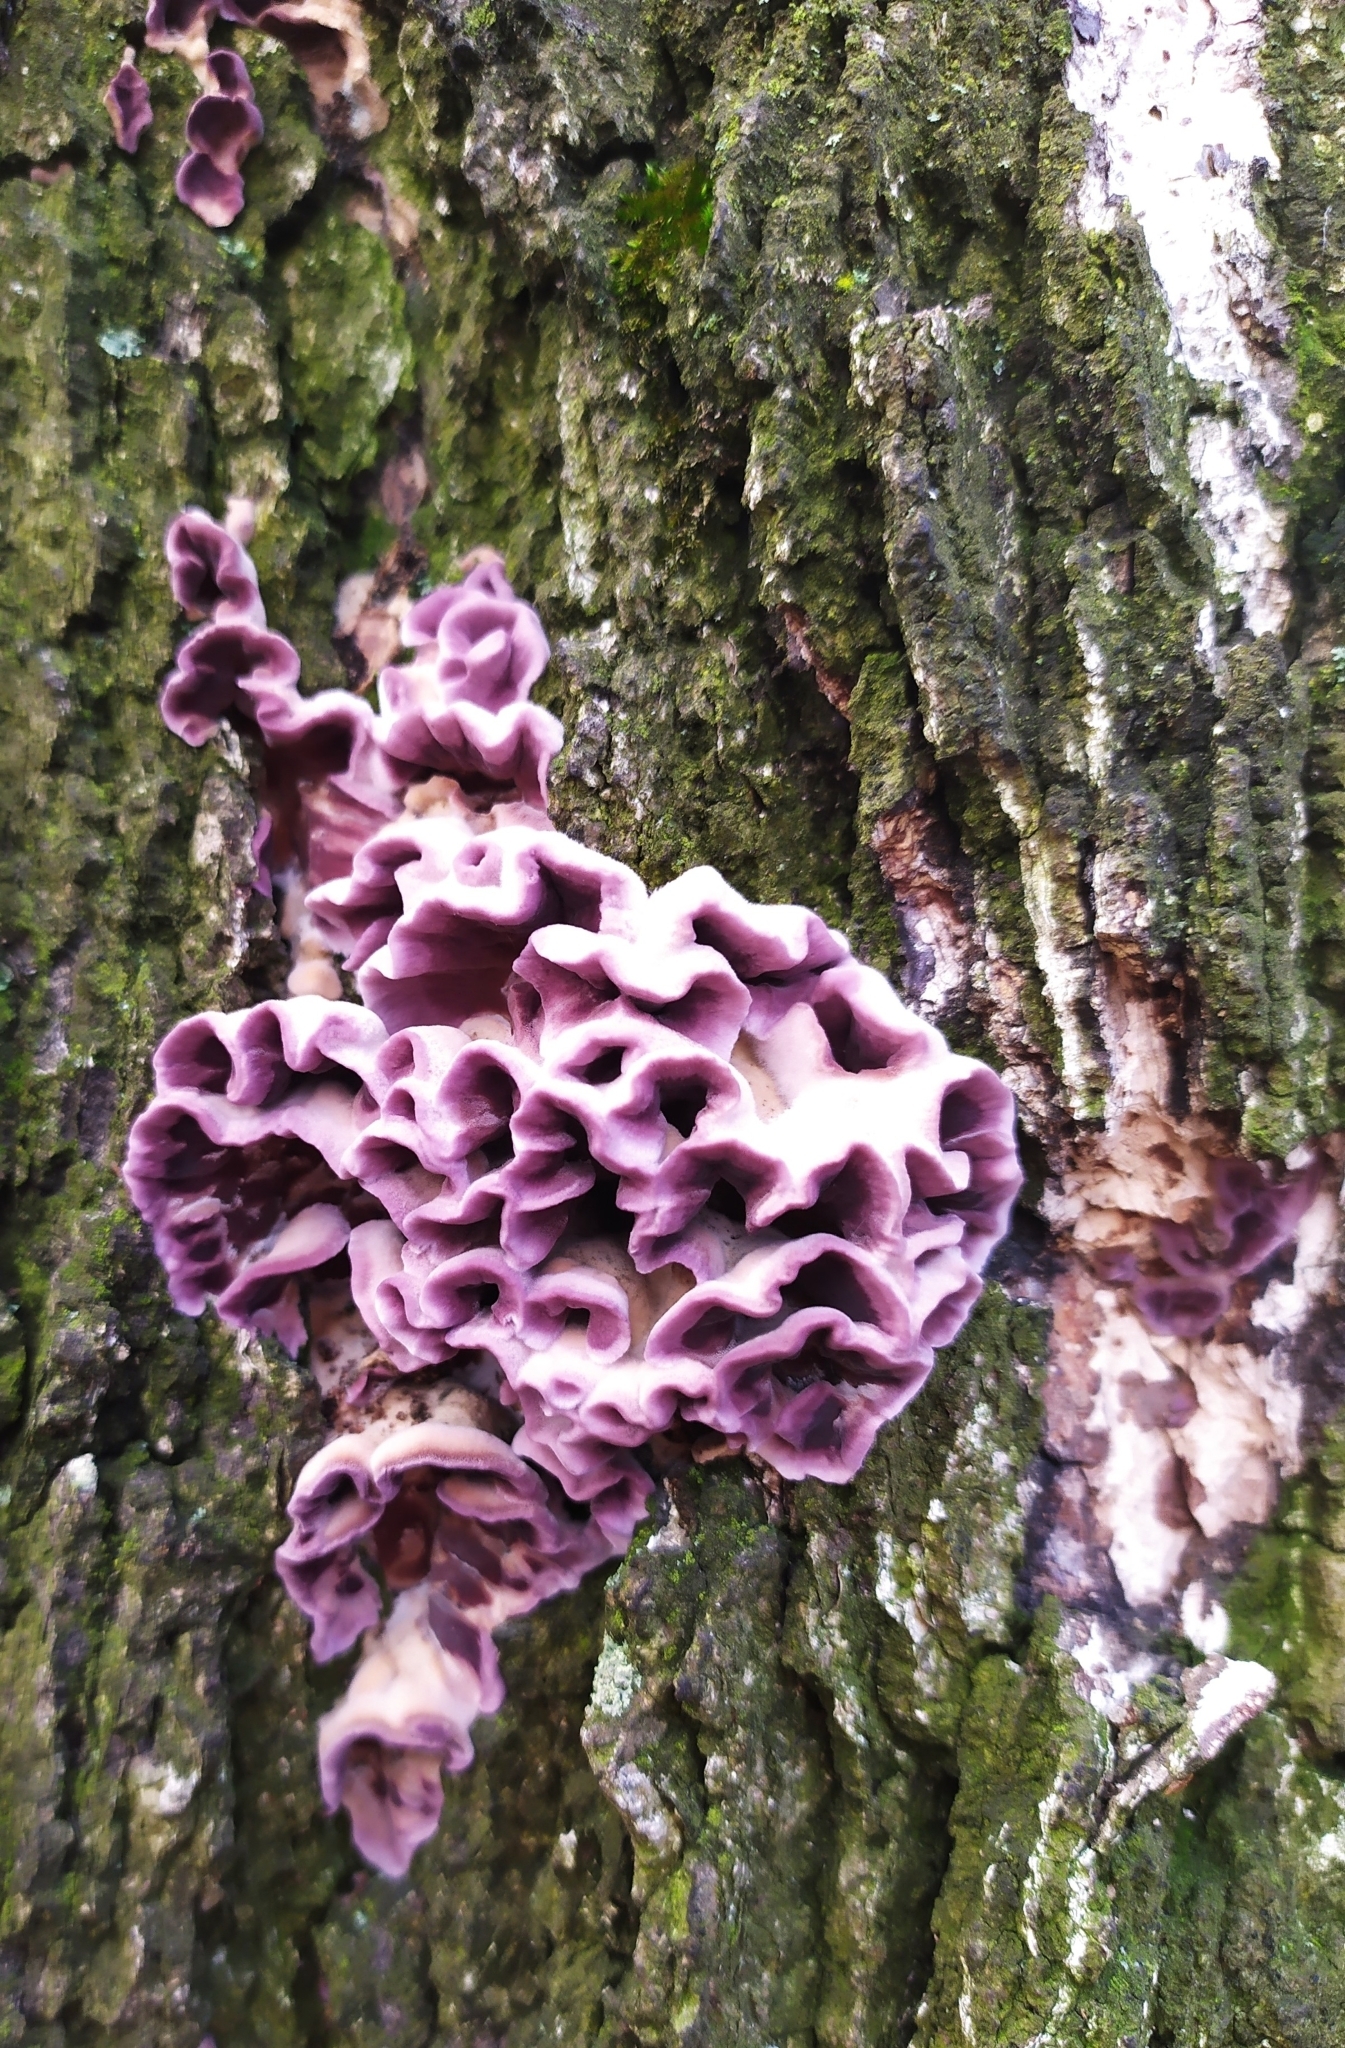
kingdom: Fungi
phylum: Basidiomycota
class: Agaricomycetes
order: Agaricales
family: Cyphellaceae
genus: Chondrostereum
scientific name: Chondrostereum purpureum
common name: Silver leaf disease
